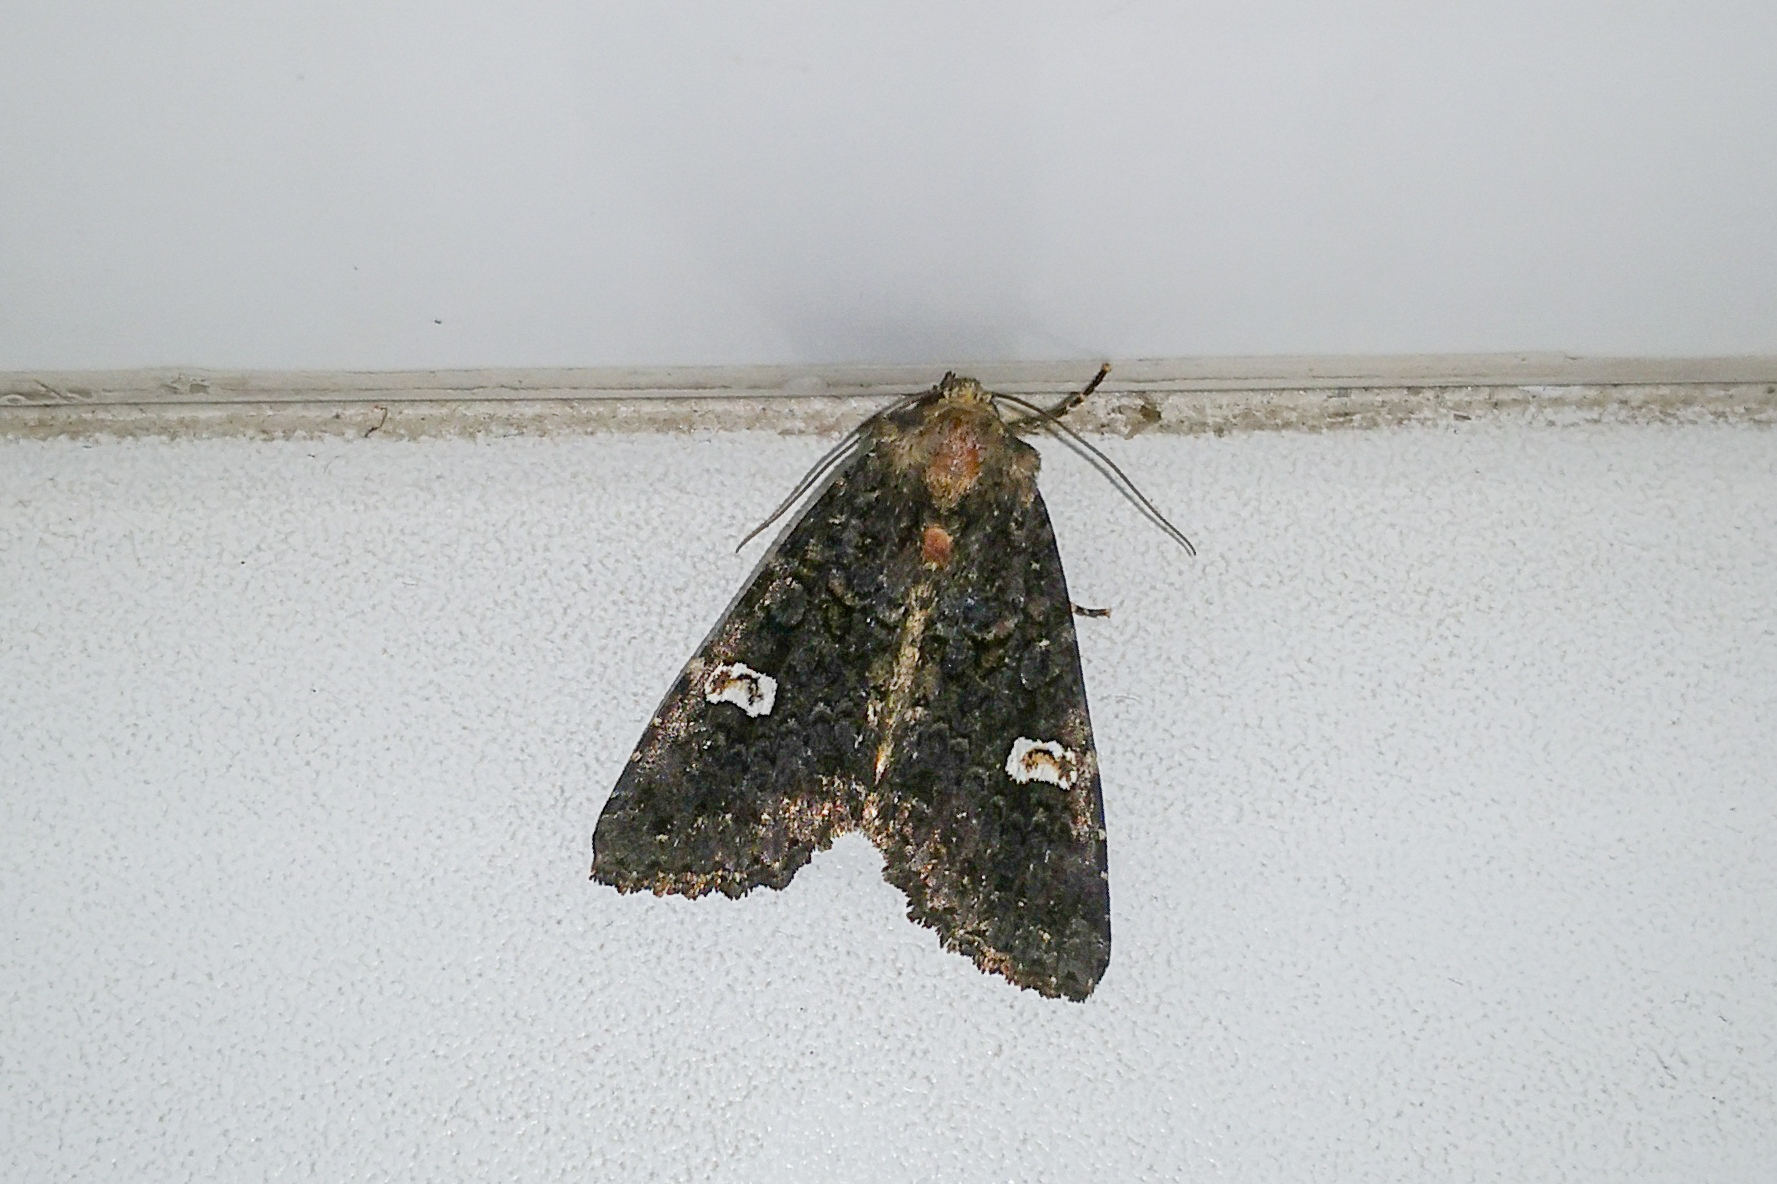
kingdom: Animalia
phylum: Arthropoda
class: Insecta
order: Lepidoptera
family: Noctuidae
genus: Melanchra
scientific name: Melanchra persicariae
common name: Dot moth
